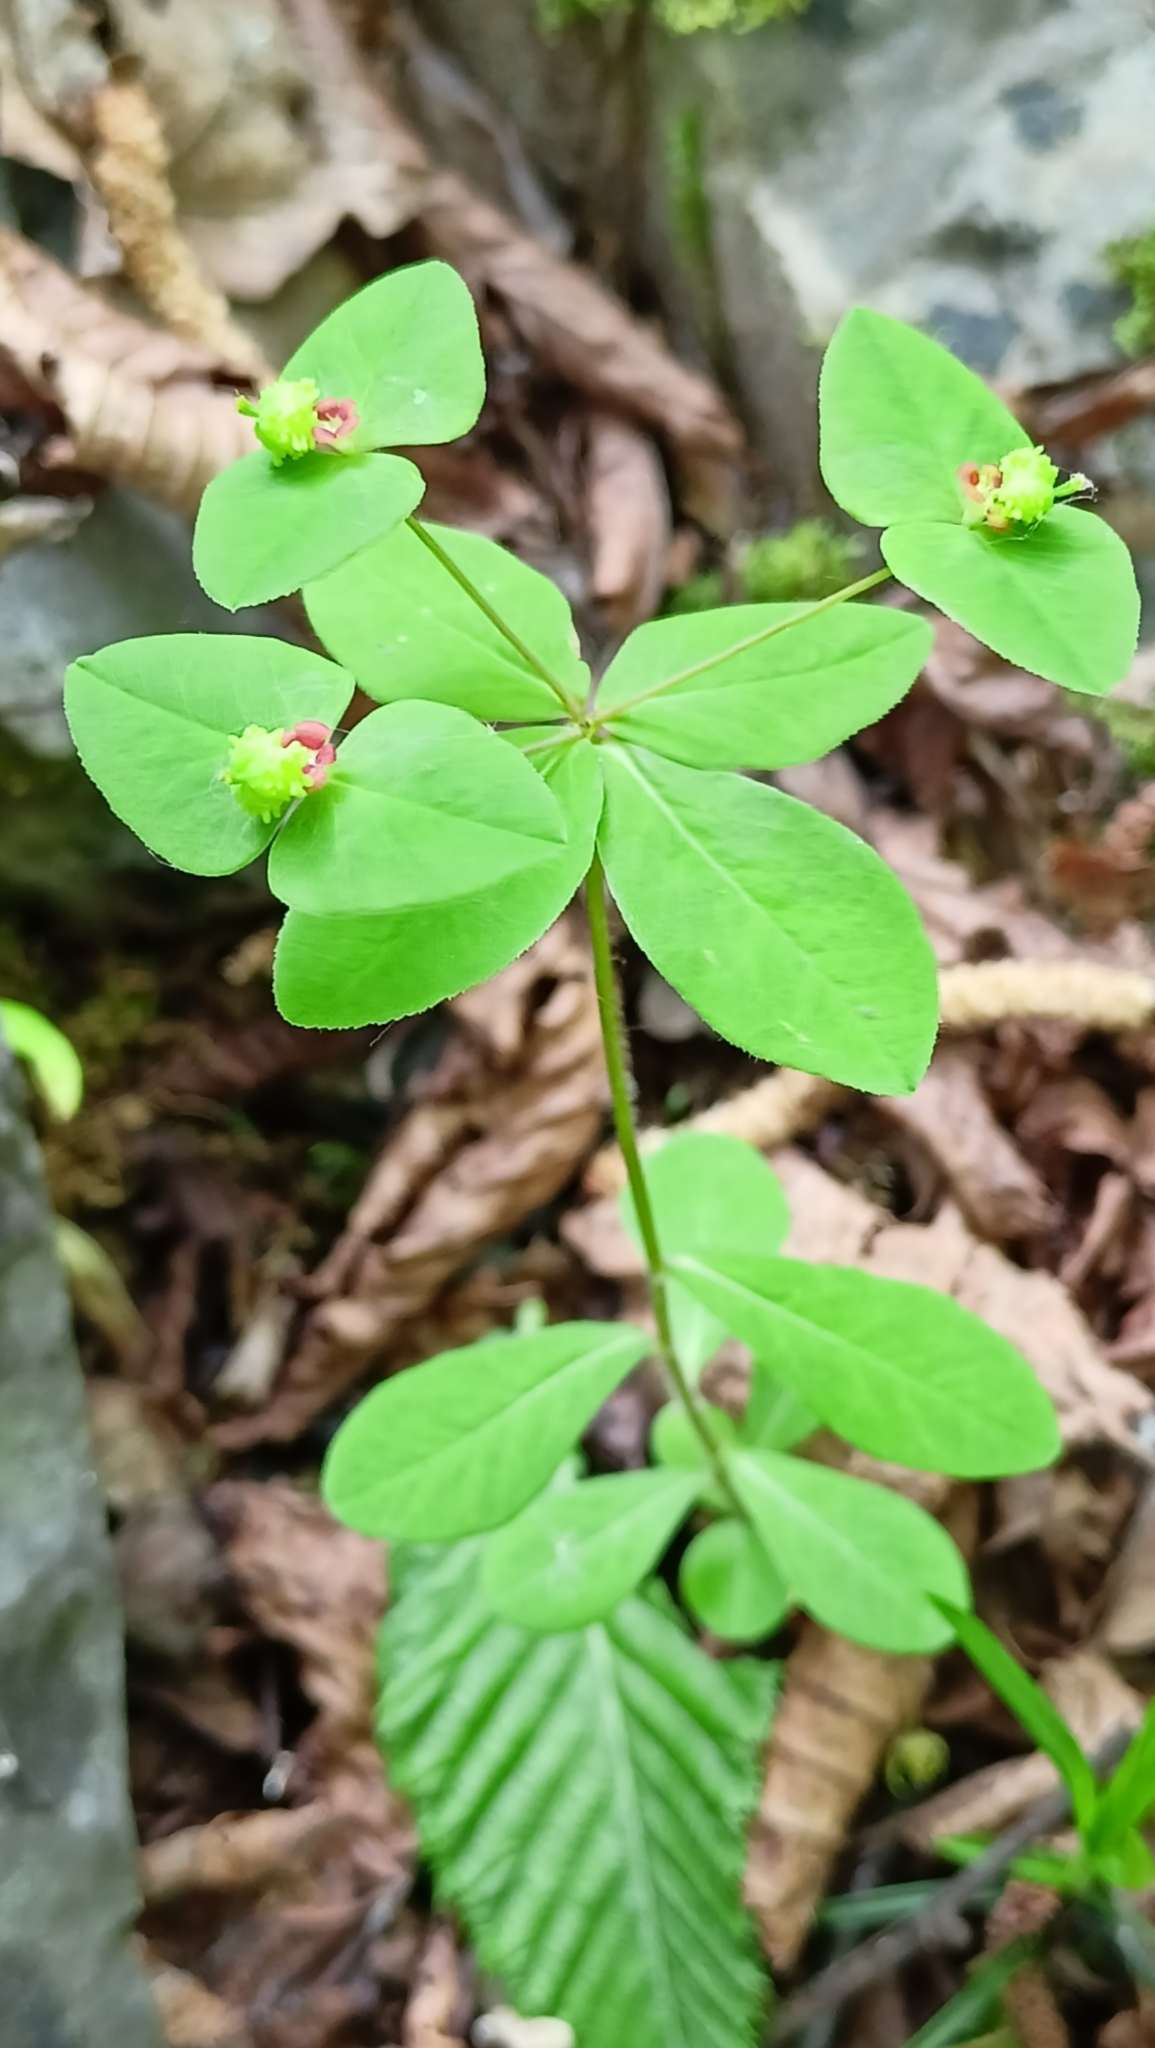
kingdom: Plantae
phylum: Tracheophyta
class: Magnoliopsida
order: Malpighiales
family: Euphorbiaceae
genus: Euphorbia
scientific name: Euphorbia dulcis
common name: Sweet spurge
